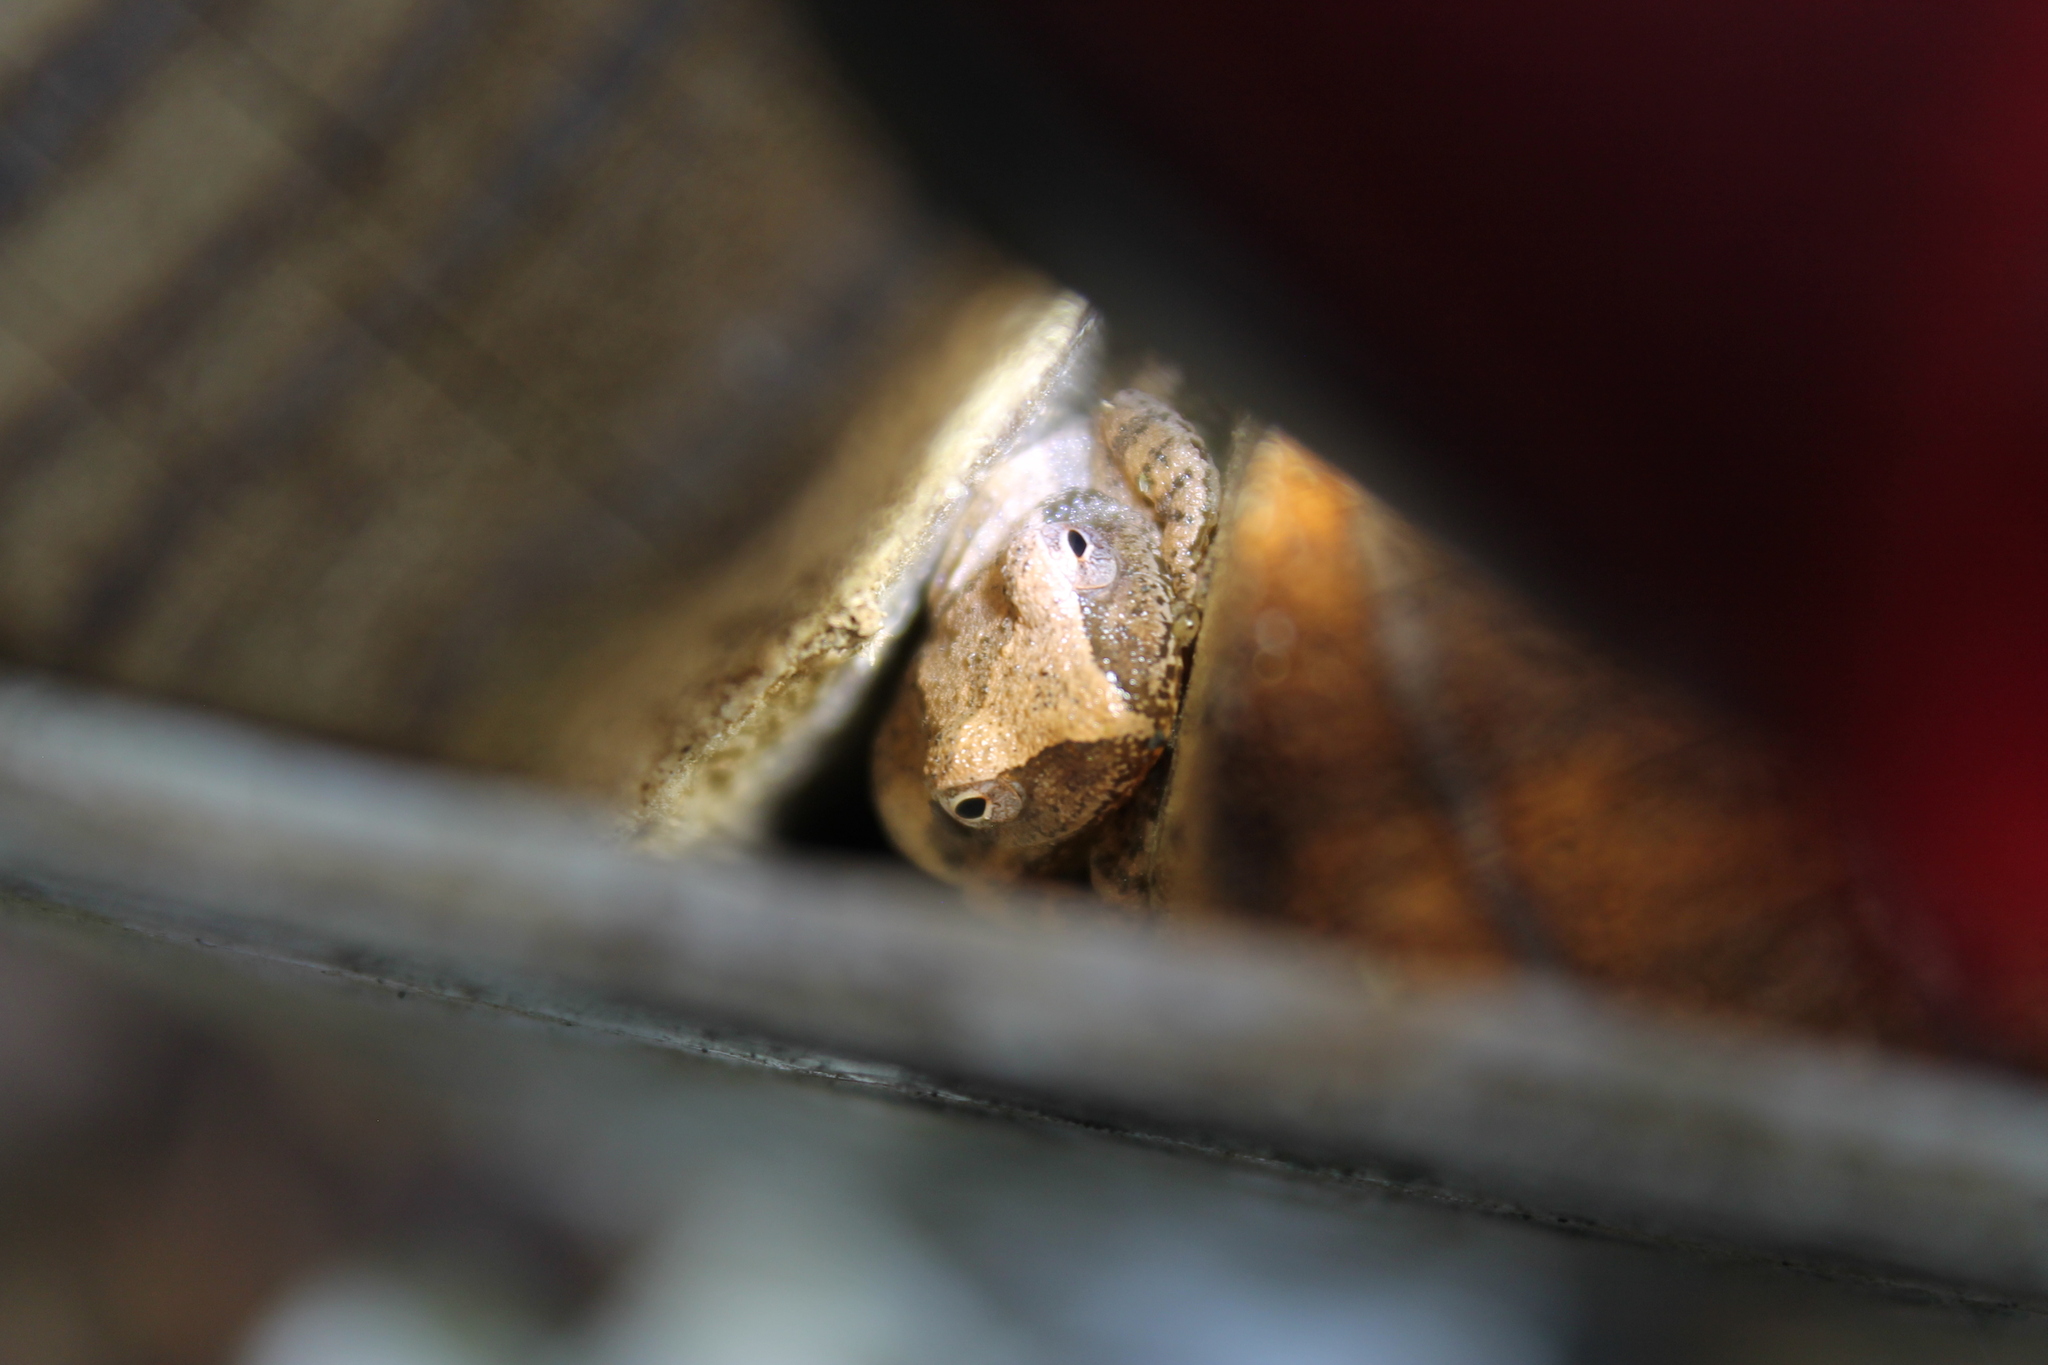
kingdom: Animalia
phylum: Chordata
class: Amphibia
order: Anura
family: Hylidae
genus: Pseudacris
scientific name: Pseudacris crucifer
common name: Spring peeper
